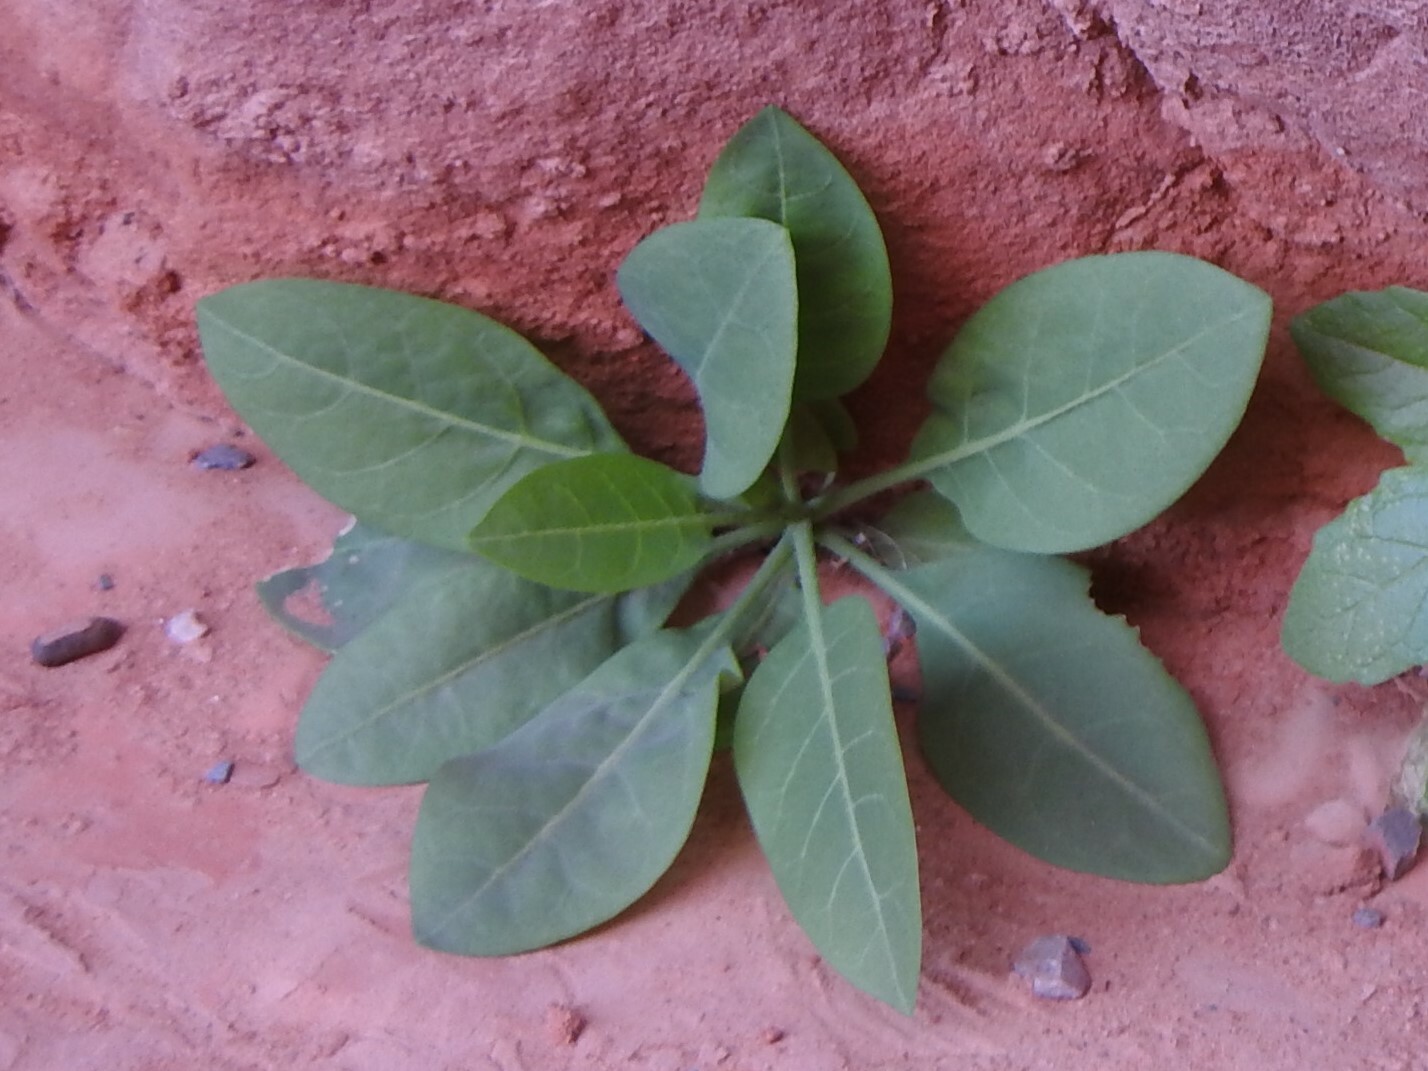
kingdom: Plantae
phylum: Tracheophyta
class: Magnoliopsida
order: Solanales
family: Solanaceae
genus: Nicotiana
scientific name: Nicotiana glauca
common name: Tree tobacco
